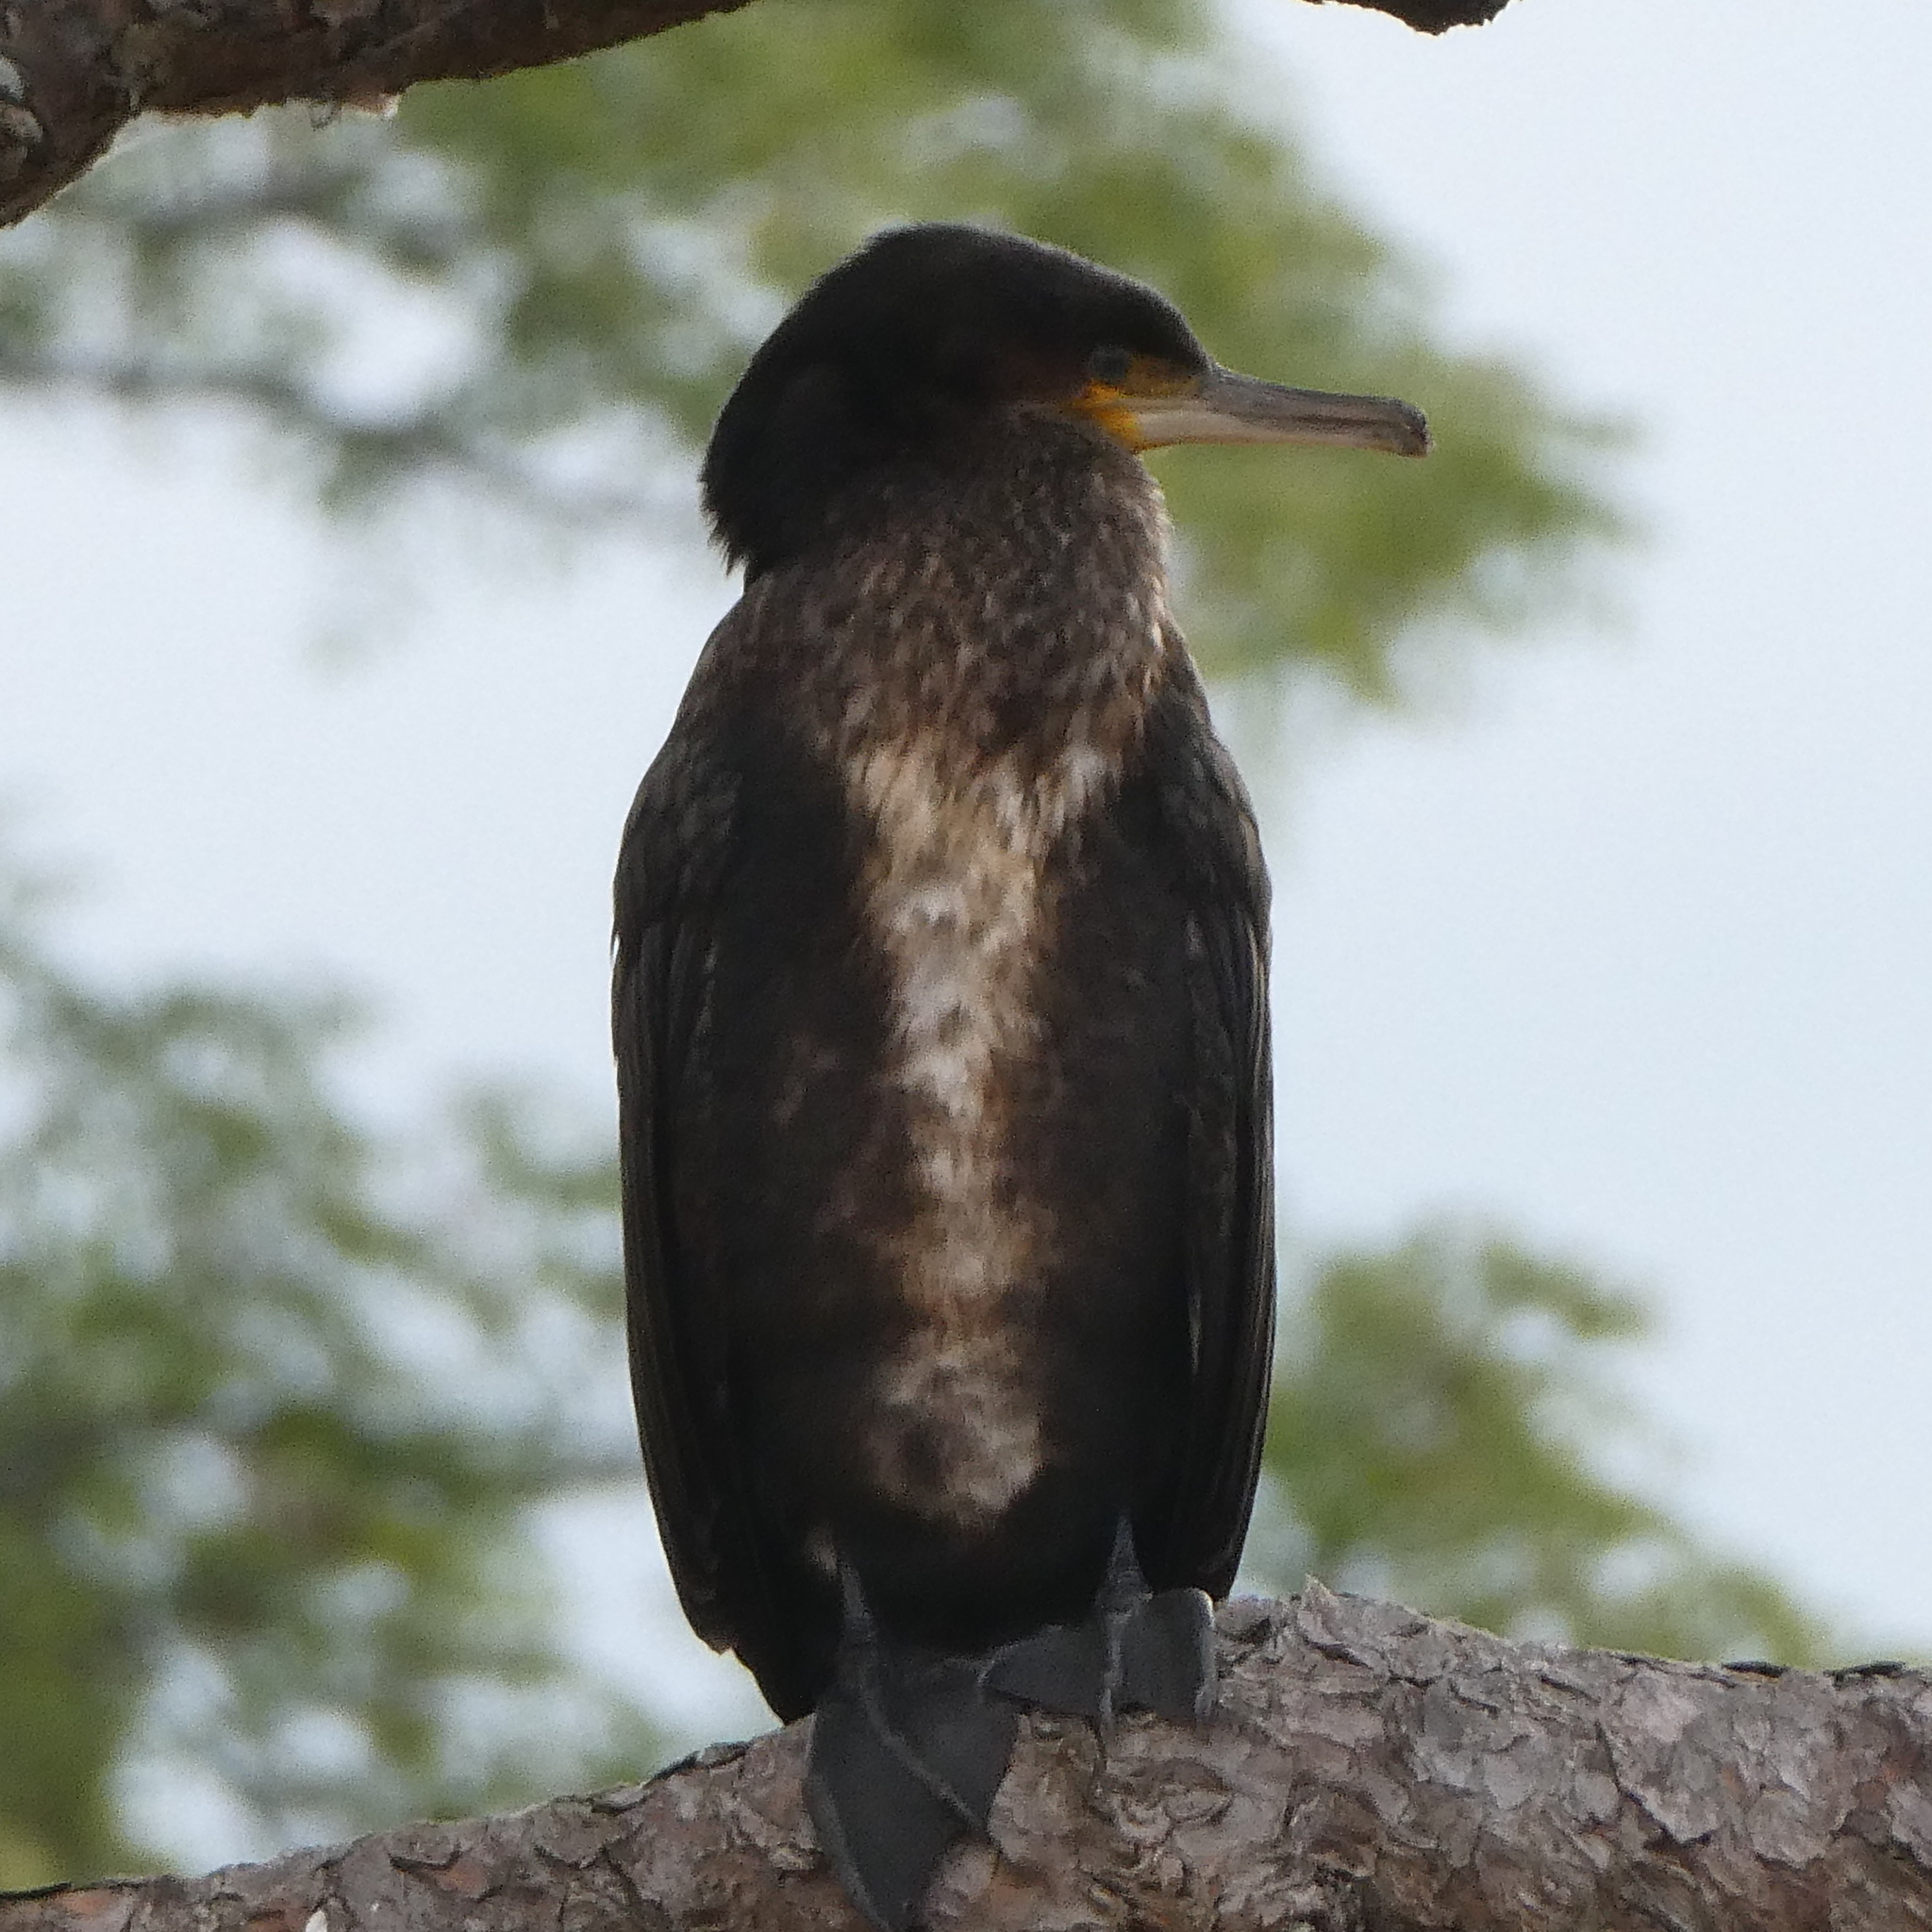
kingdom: Animalia
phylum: Chordata
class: Aves
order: Suliformes
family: Phalacrocoracidae
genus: Phalacrocorax
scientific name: Phalacrocorax carbo
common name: Great cormorant
